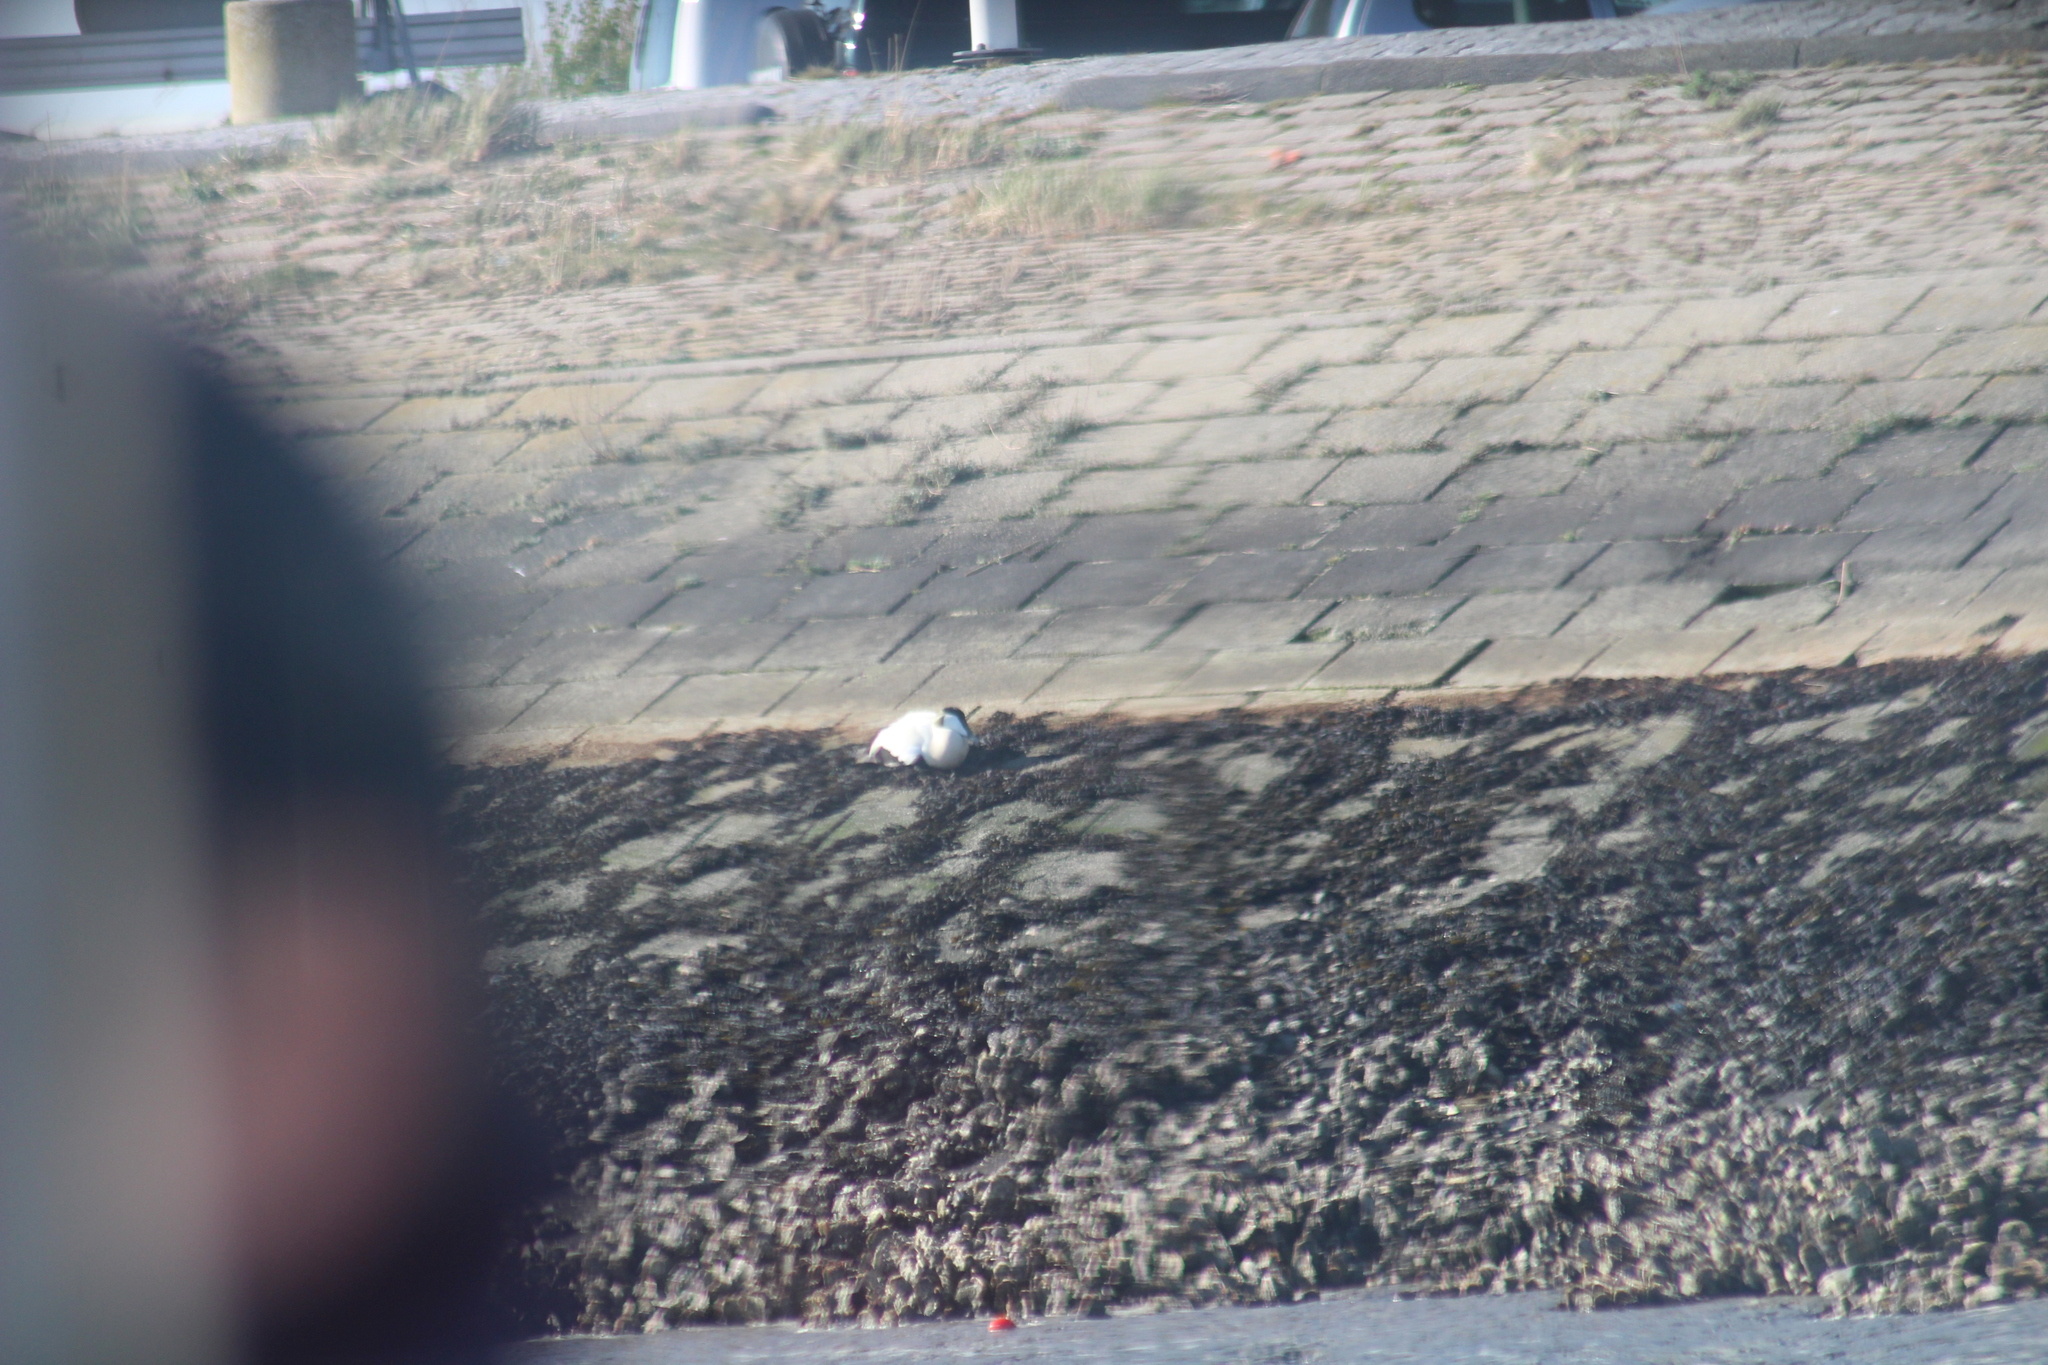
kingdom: Animalia
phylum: Chordata
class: Aves
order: Anseriformes
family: Anatidae
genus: Somateria
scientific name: Somateria mollissima
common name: Common eider
